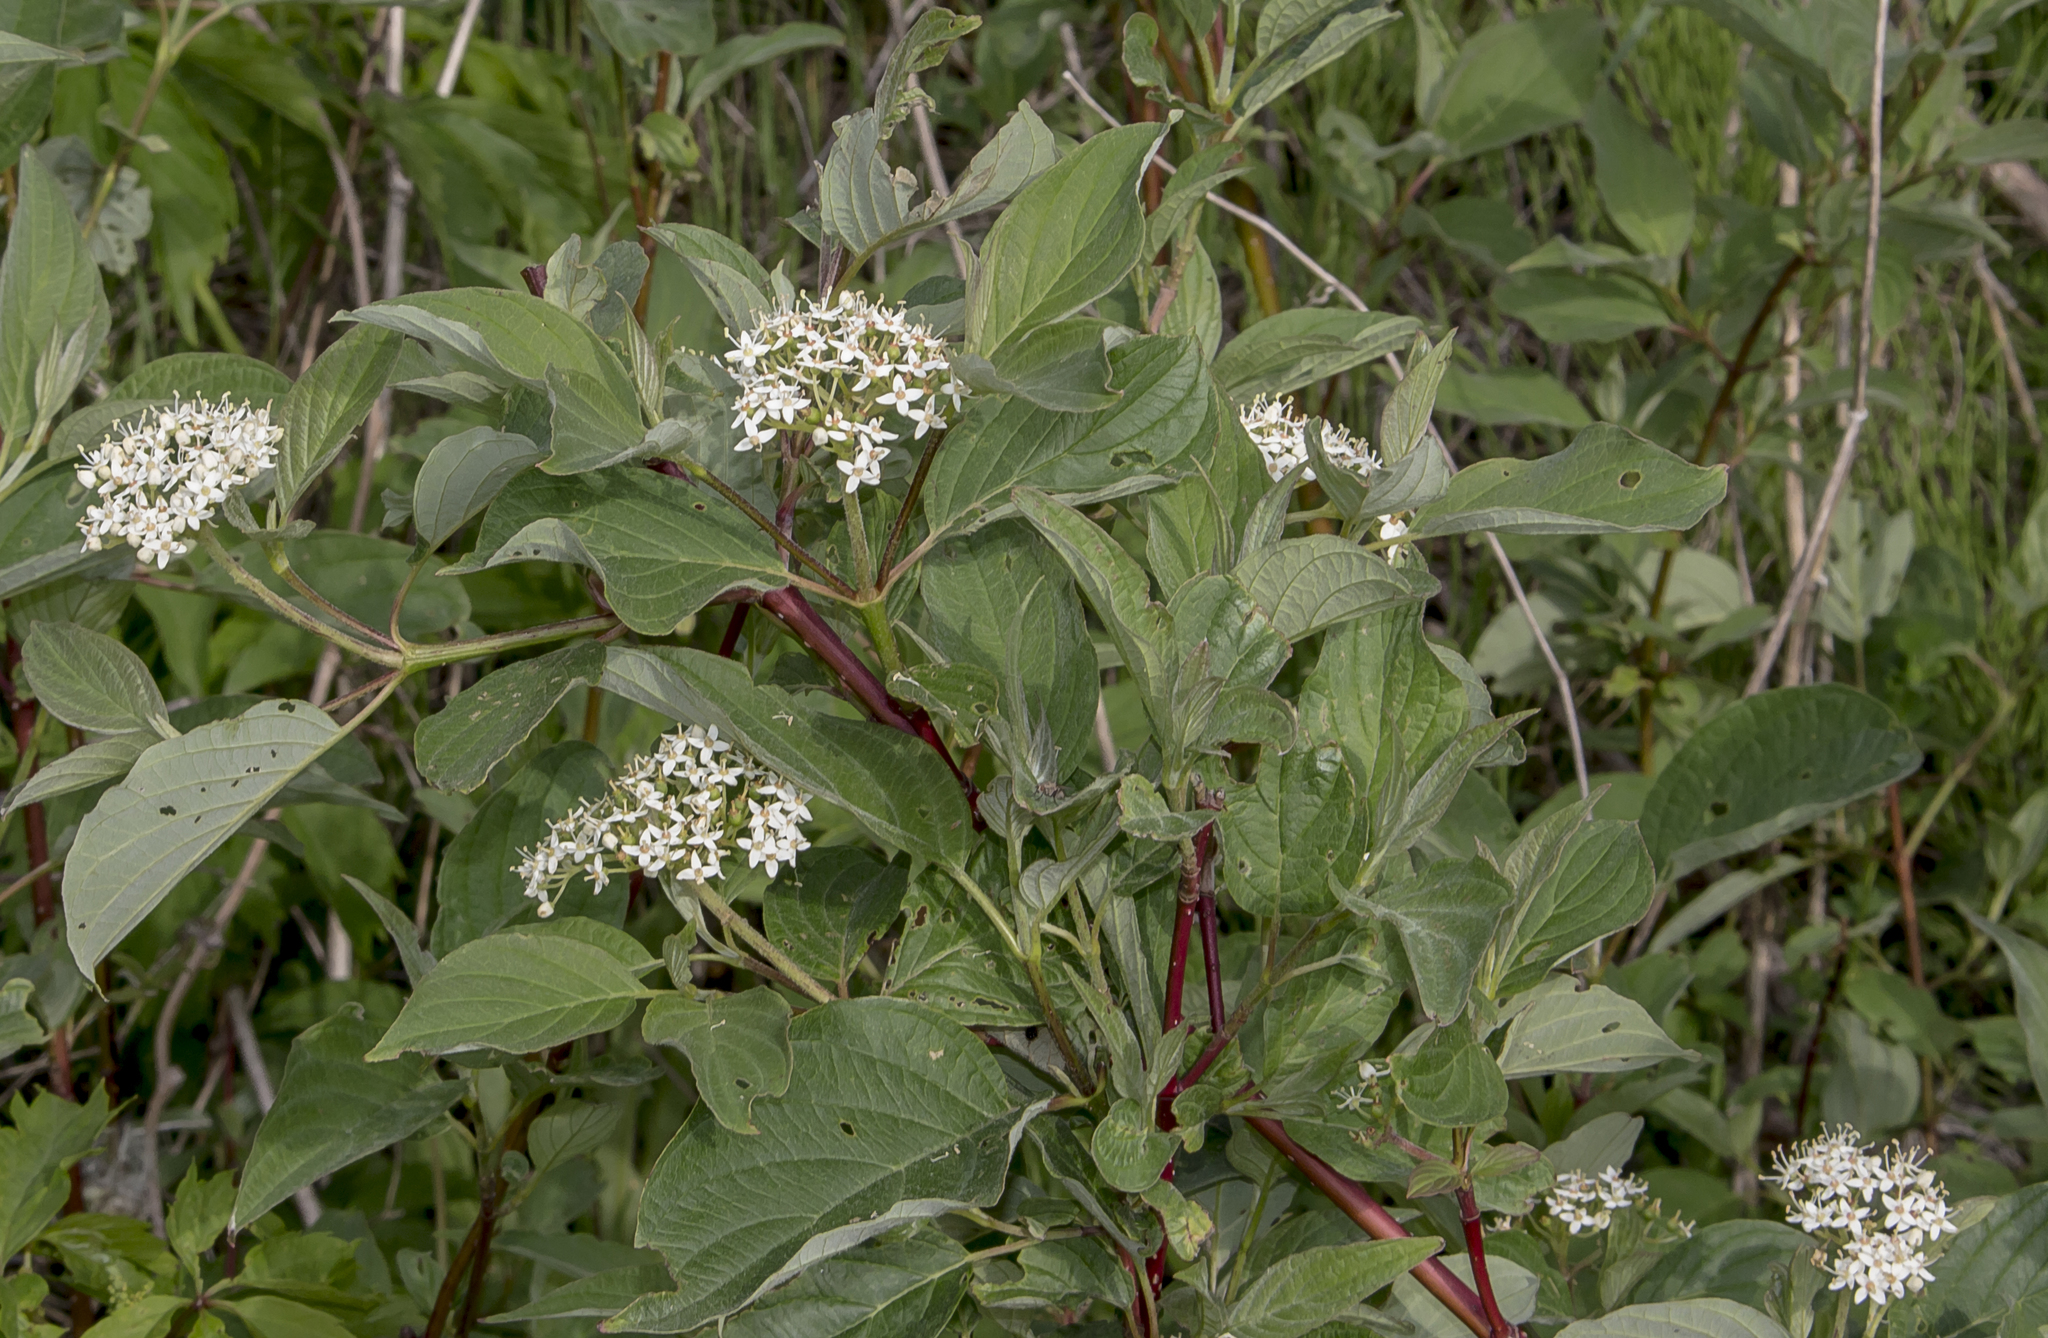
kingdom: Plantae
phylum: Tracheophyta
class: Magnoliopsida
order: Cornales
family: Cornaceae
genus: Cornus
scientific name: Cornus sericea
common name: Red-osier dogwood
